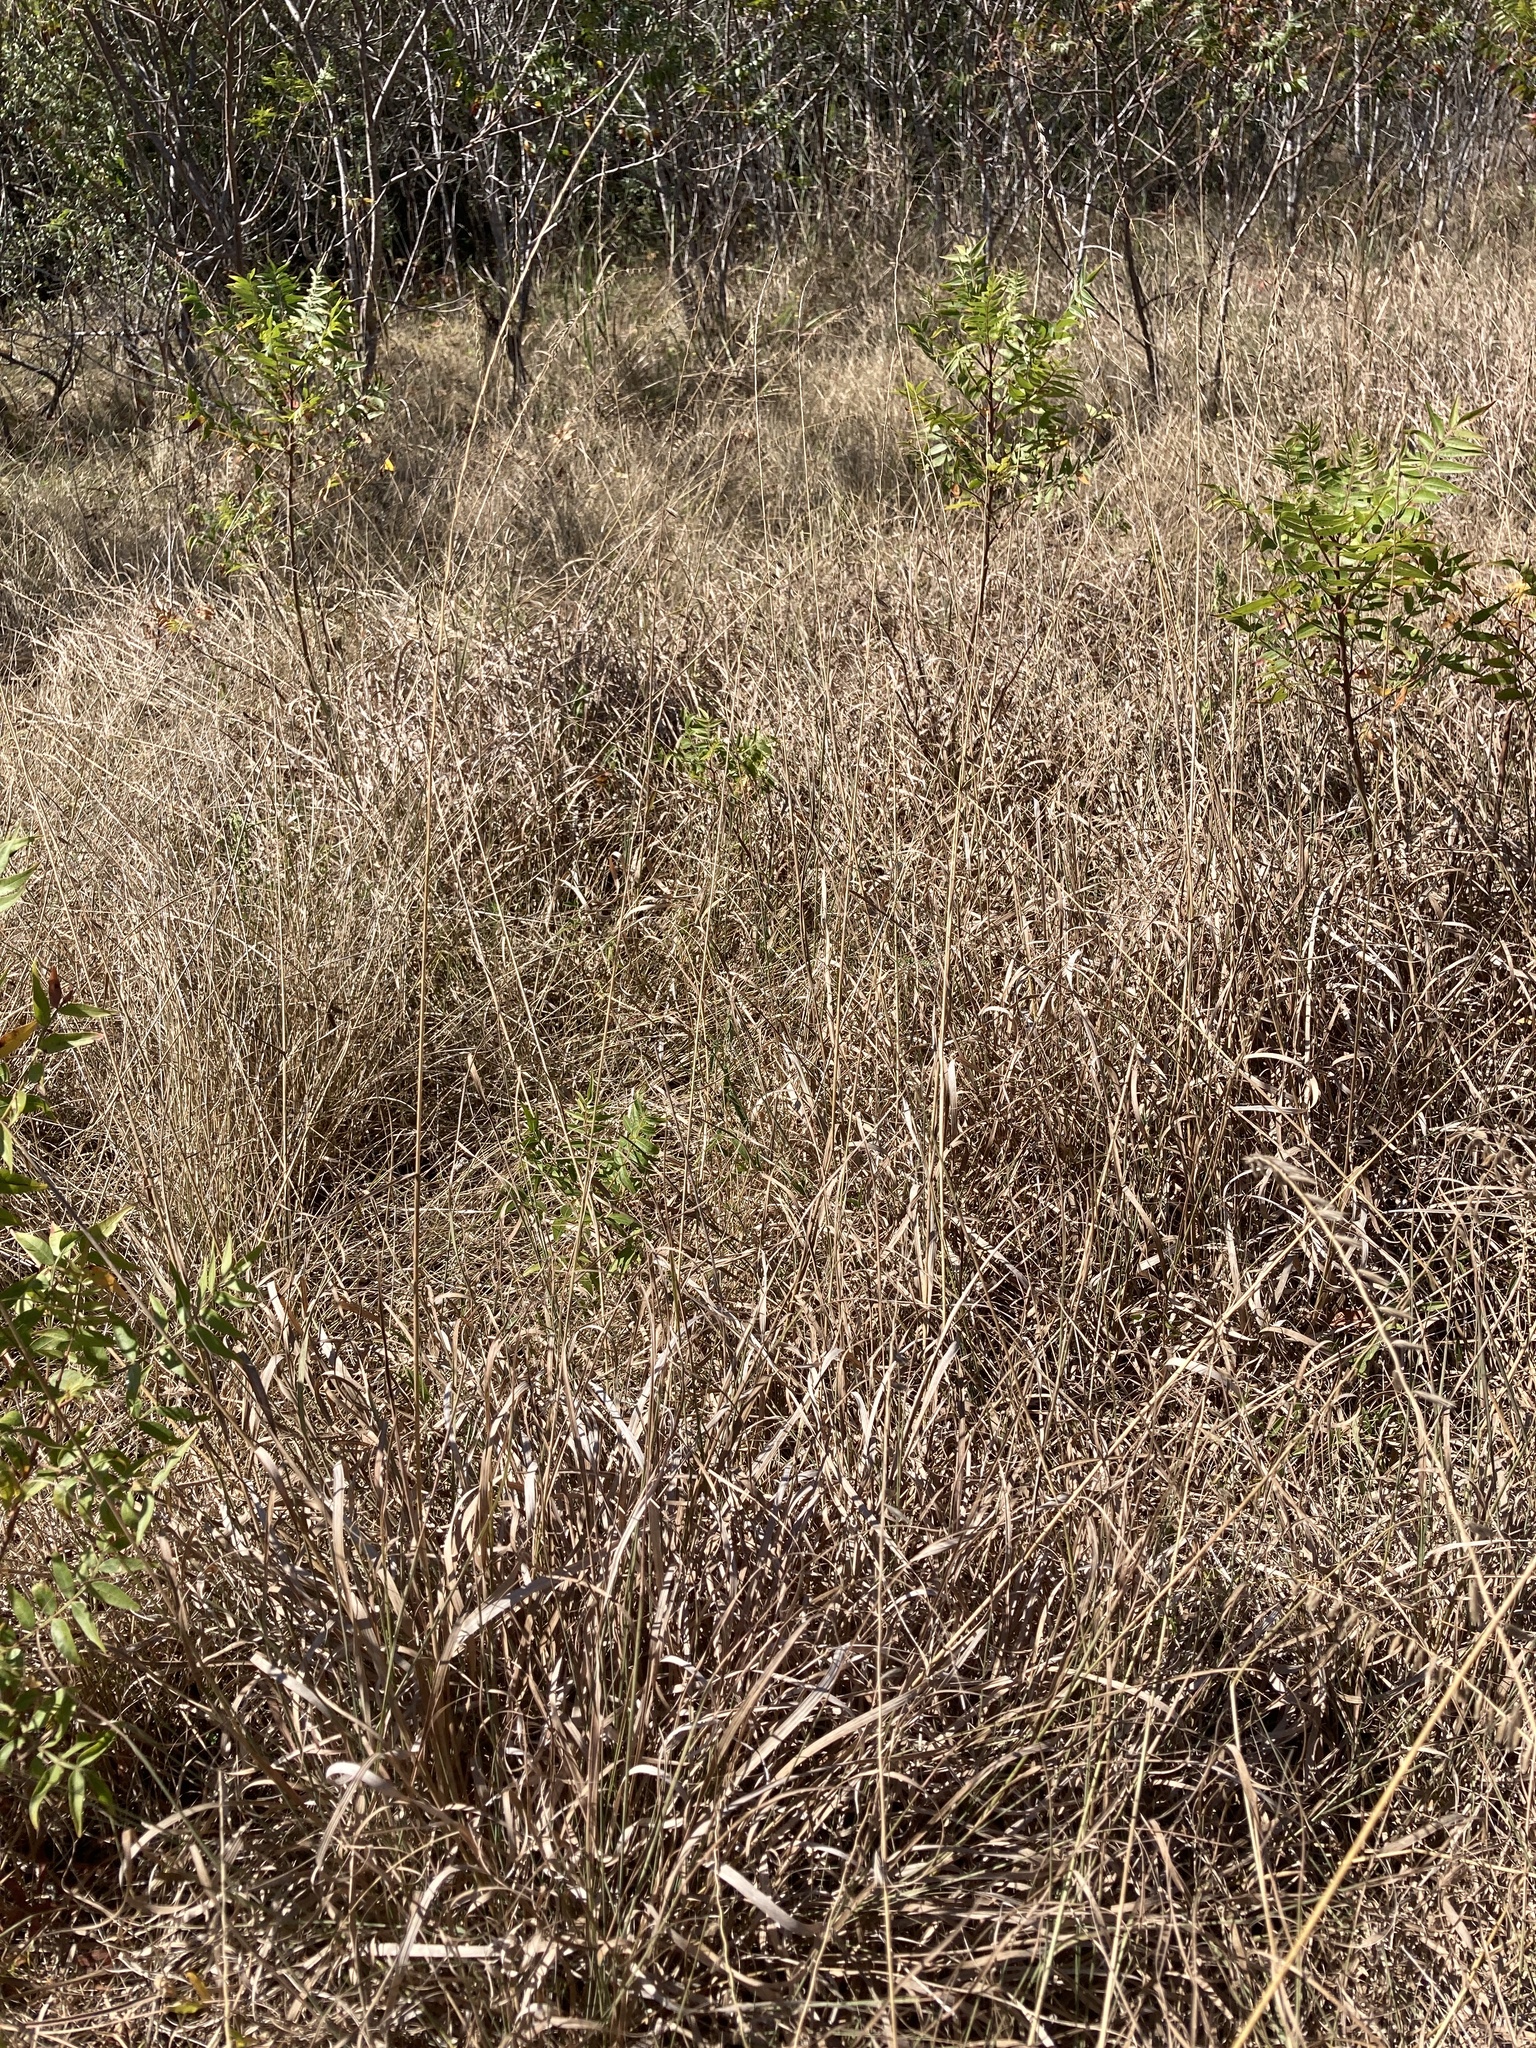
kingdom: Plantae
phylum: Tracheophyta
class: Liliopsida
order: Poales
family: Poaceae
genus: Bouteloua
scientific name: Bouteloua curtipendula
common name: Side-oats grama
